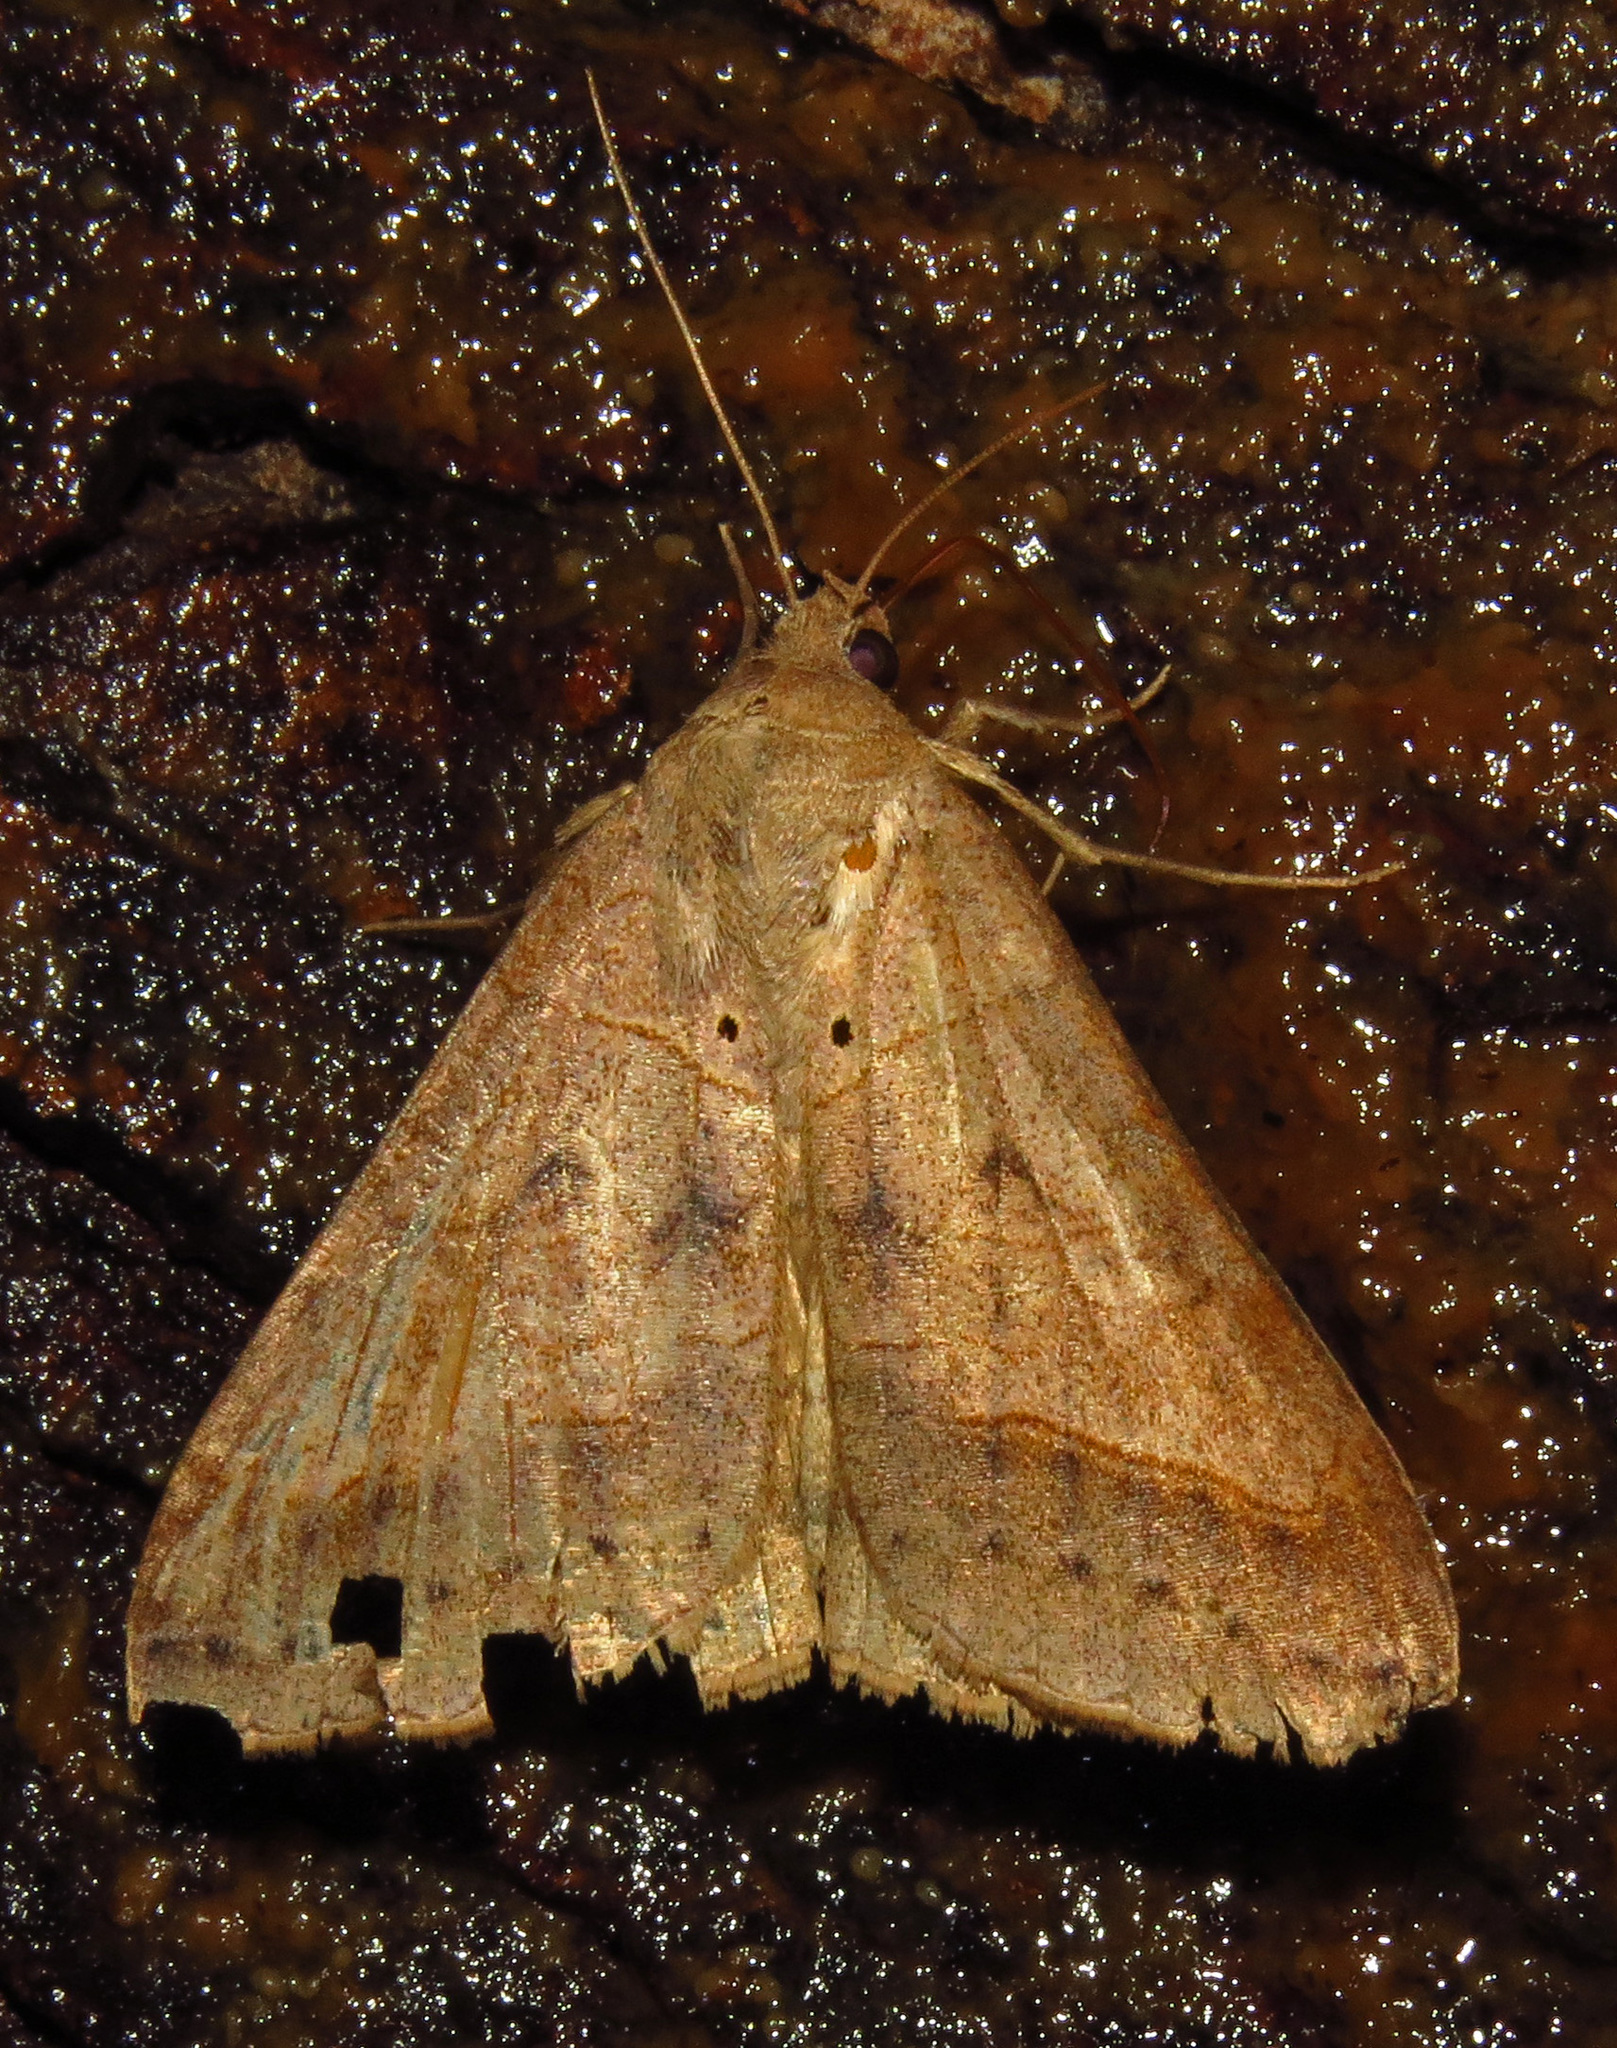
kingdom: Animalia
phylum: Arthropoda
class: Insecta
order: Lepidoptera
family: Erebidae
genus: Mocis
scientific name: Mocis marcida
